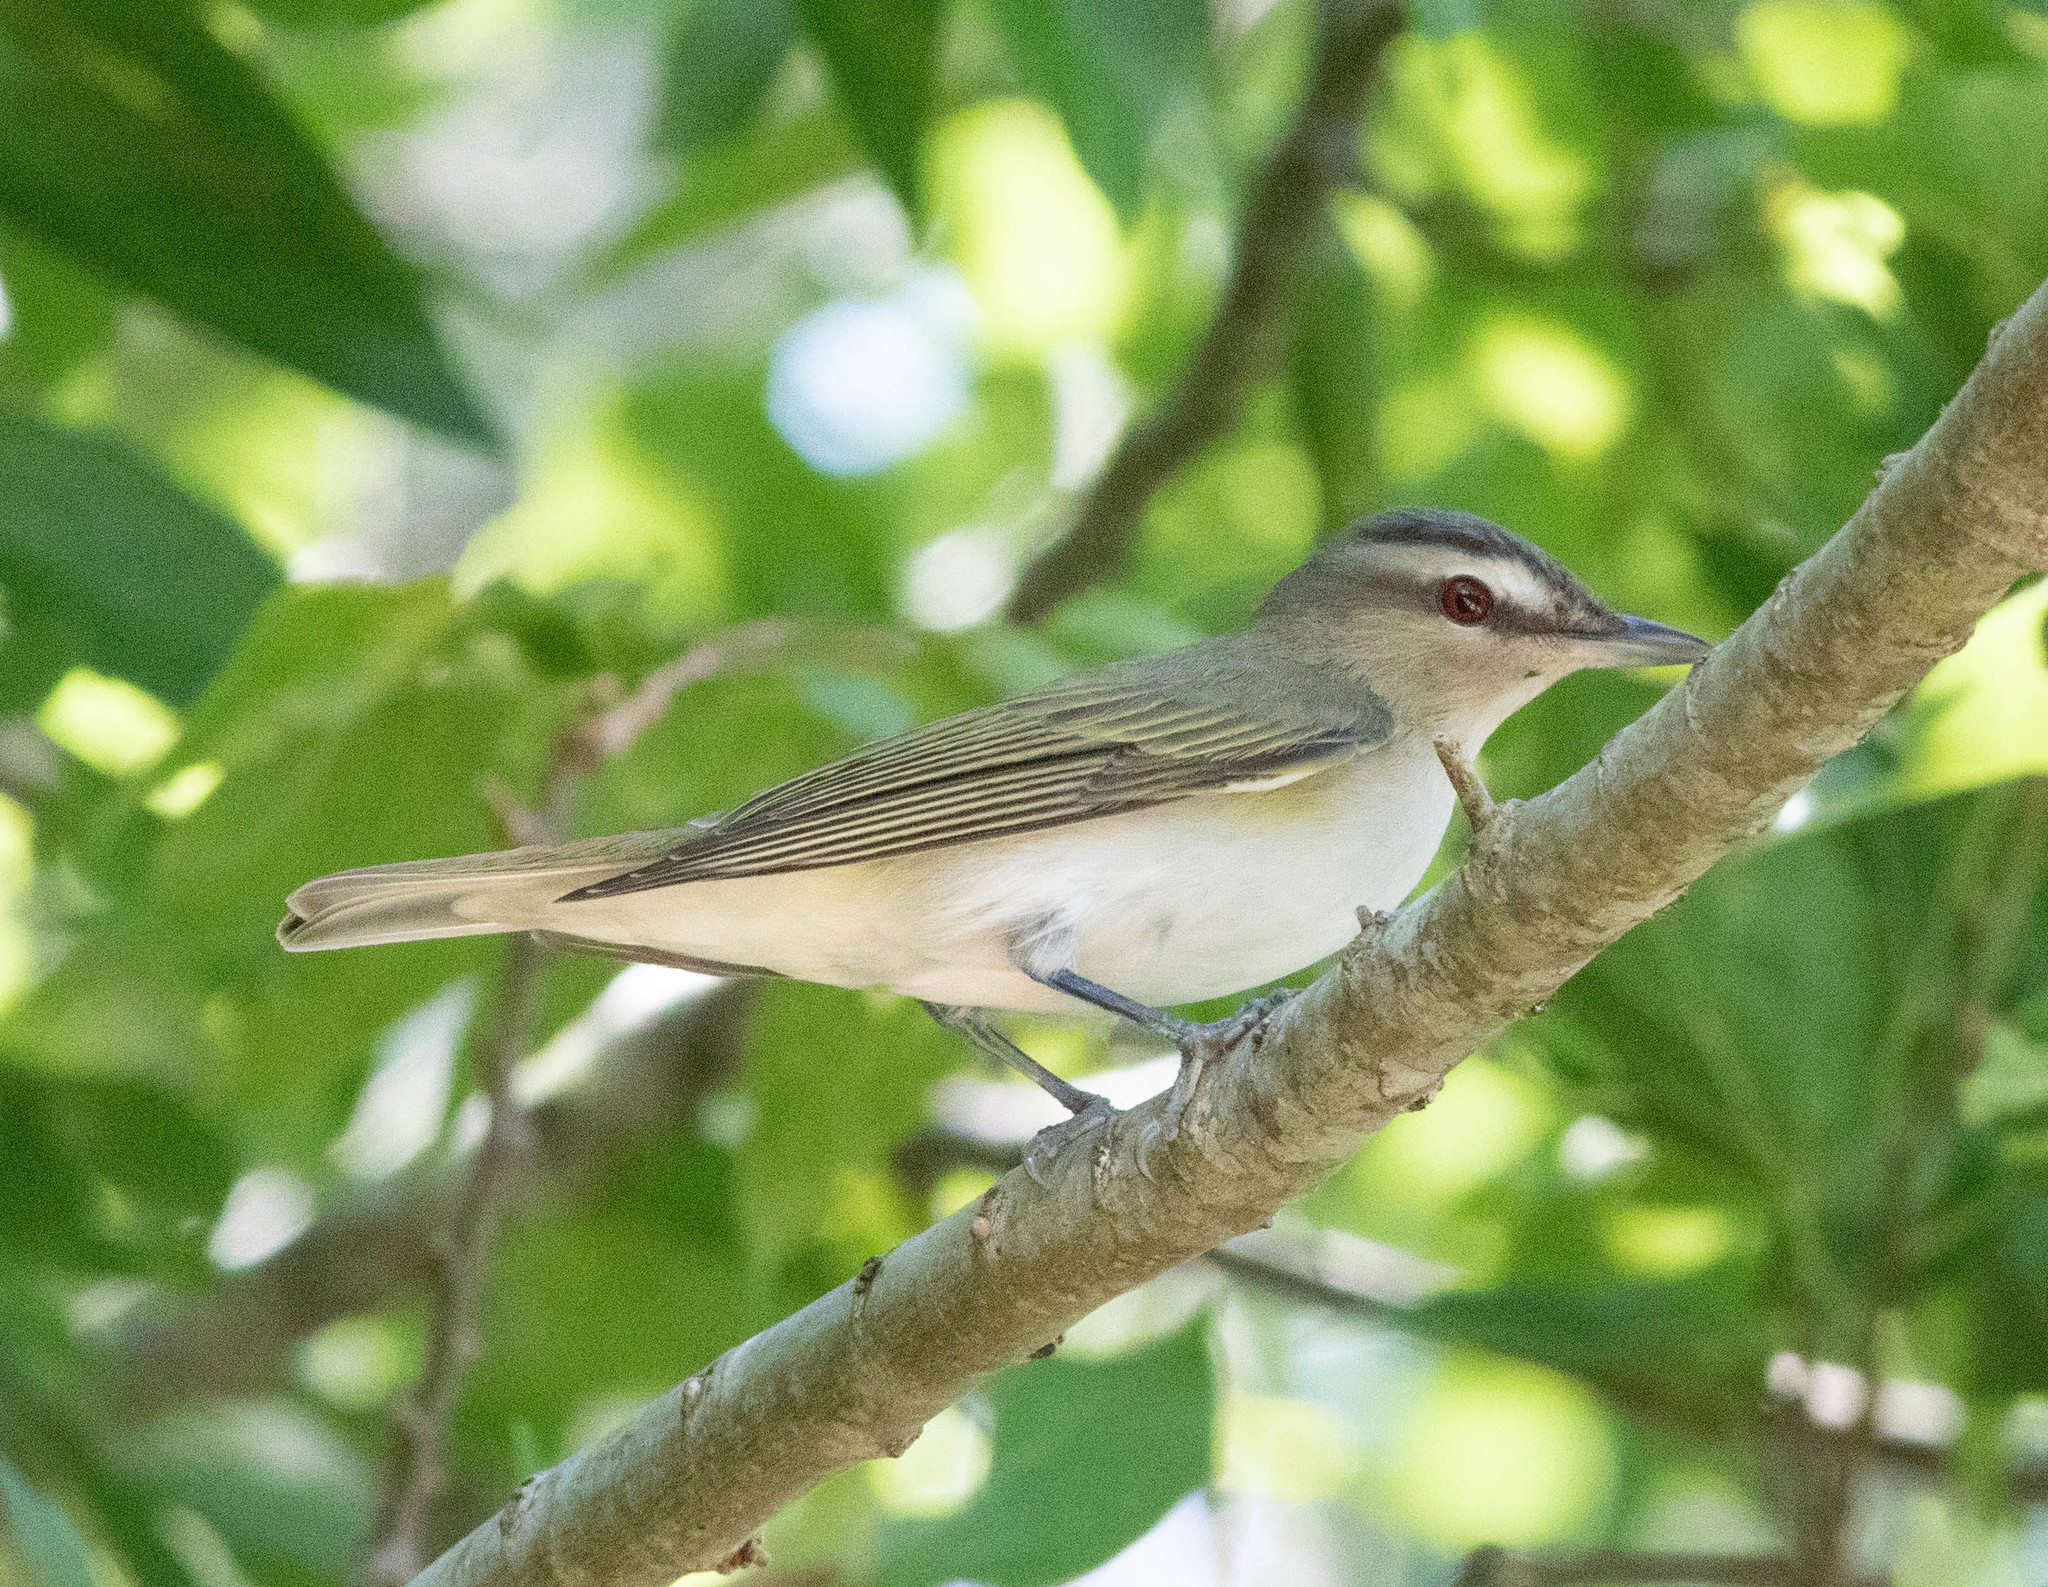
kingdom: Animalia
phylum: Chordata
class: Aves
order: Passeriformes
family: Vireonidae
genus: Vireo
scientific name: Vireo olivaceus
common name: Red-eyed vireo
